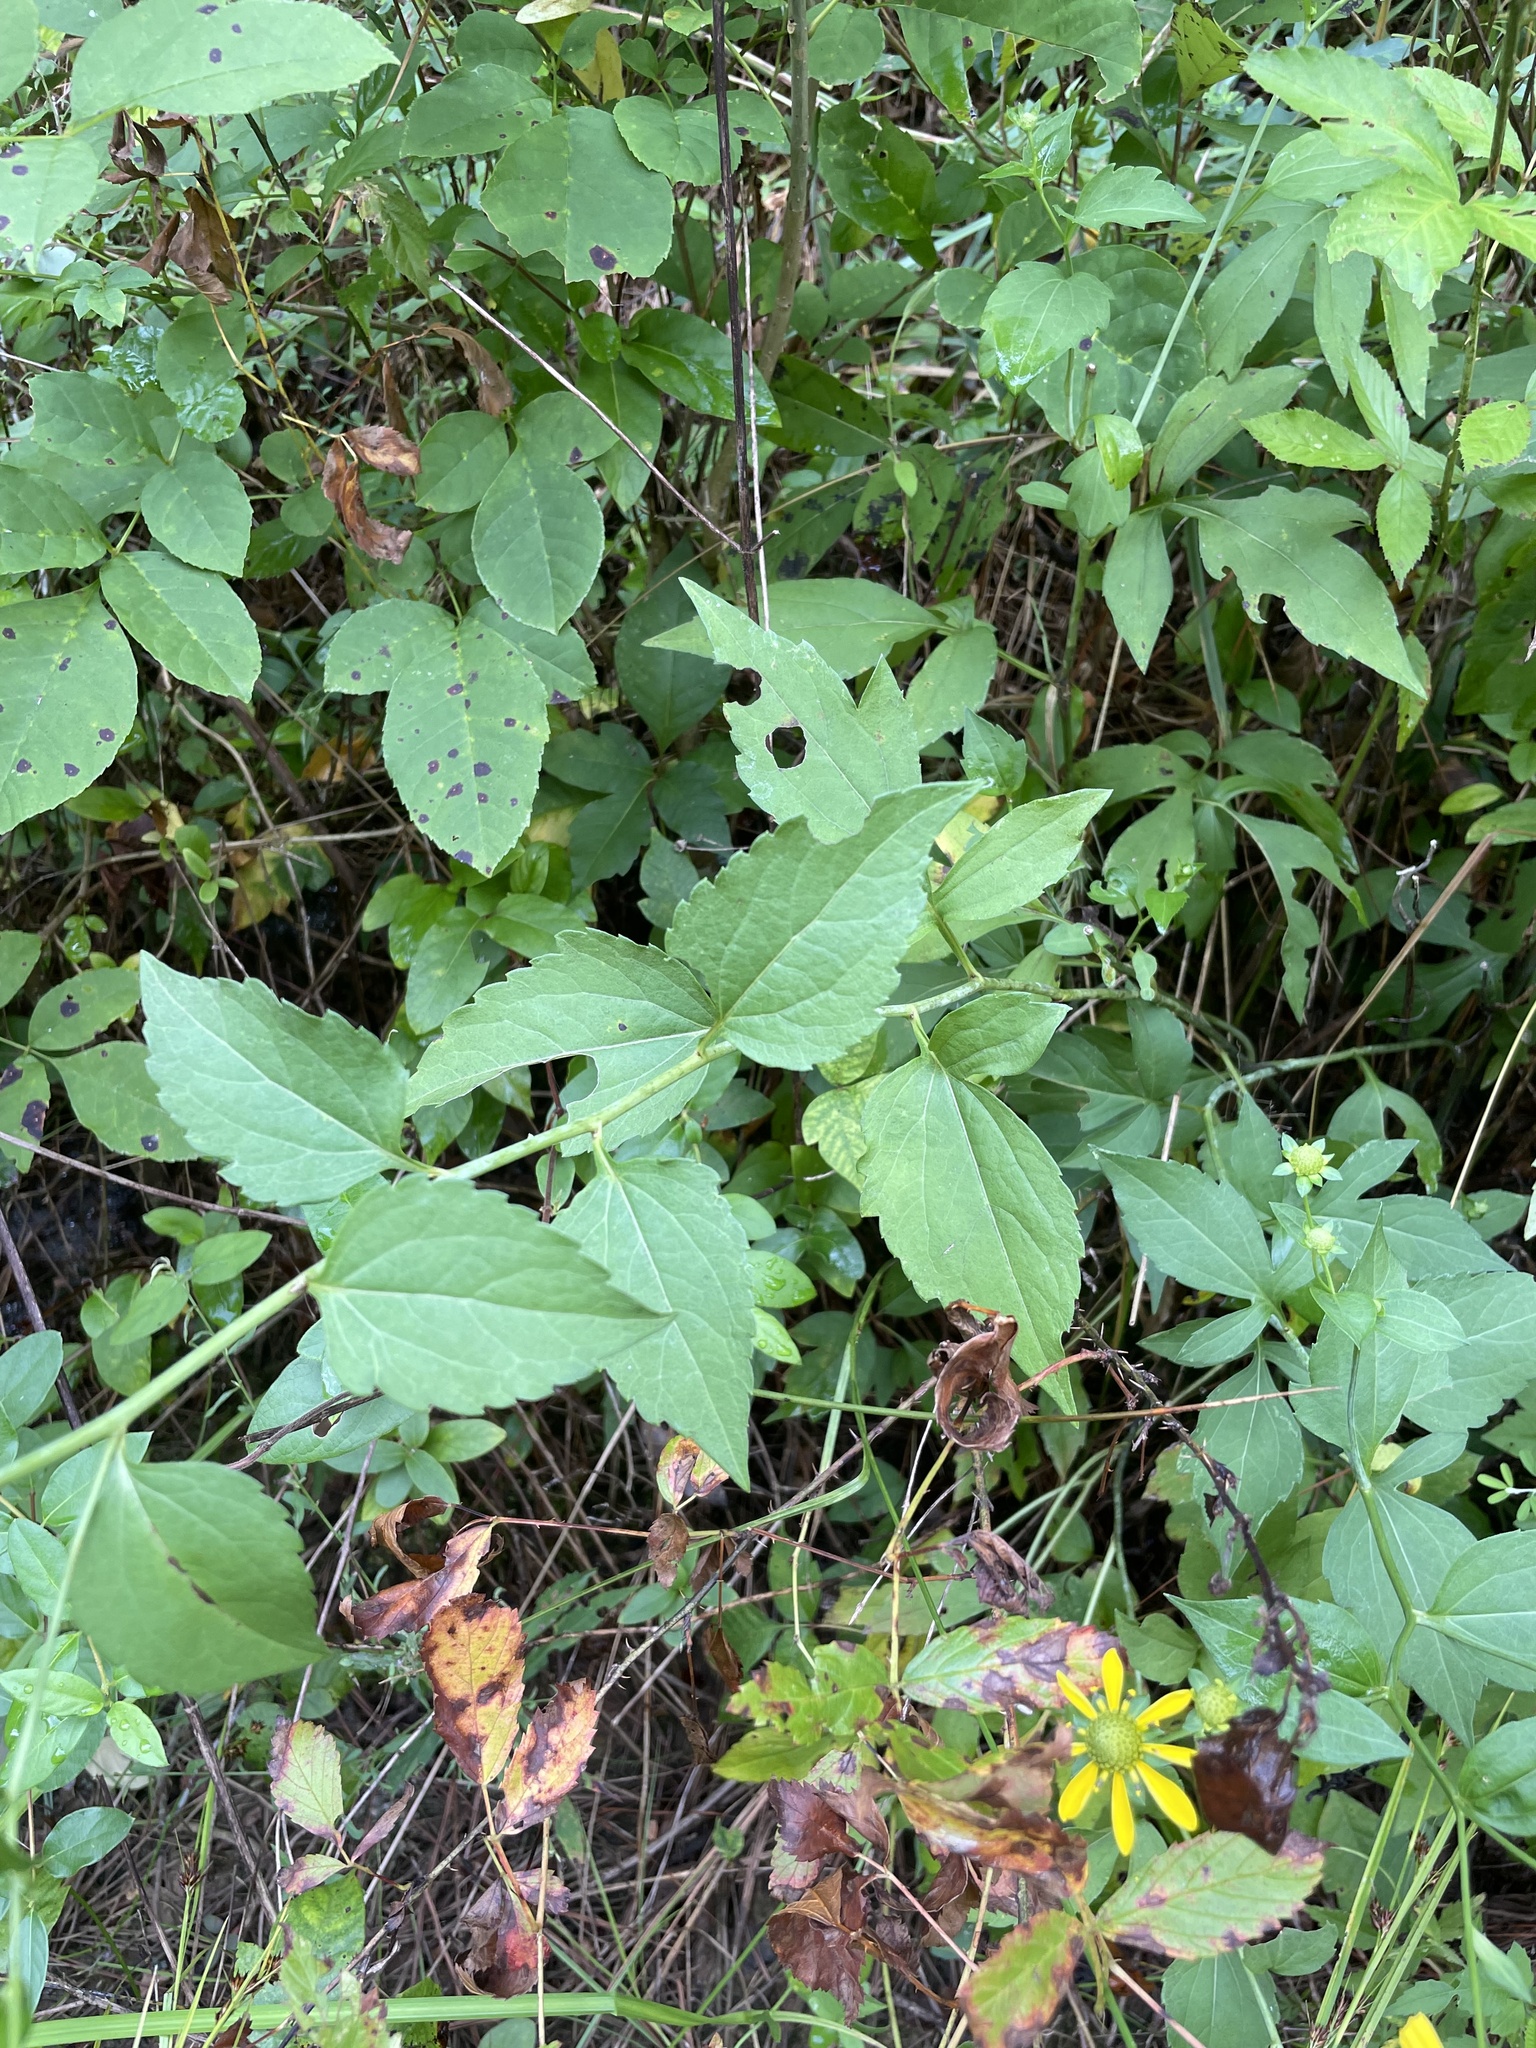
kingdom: Plantae
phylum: Tracheophyta
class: Magnoliopsida
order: Asterales
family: Asteraceae
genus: Rudbeckia
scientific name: Rudbeckia laciniata
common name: Coneflower
